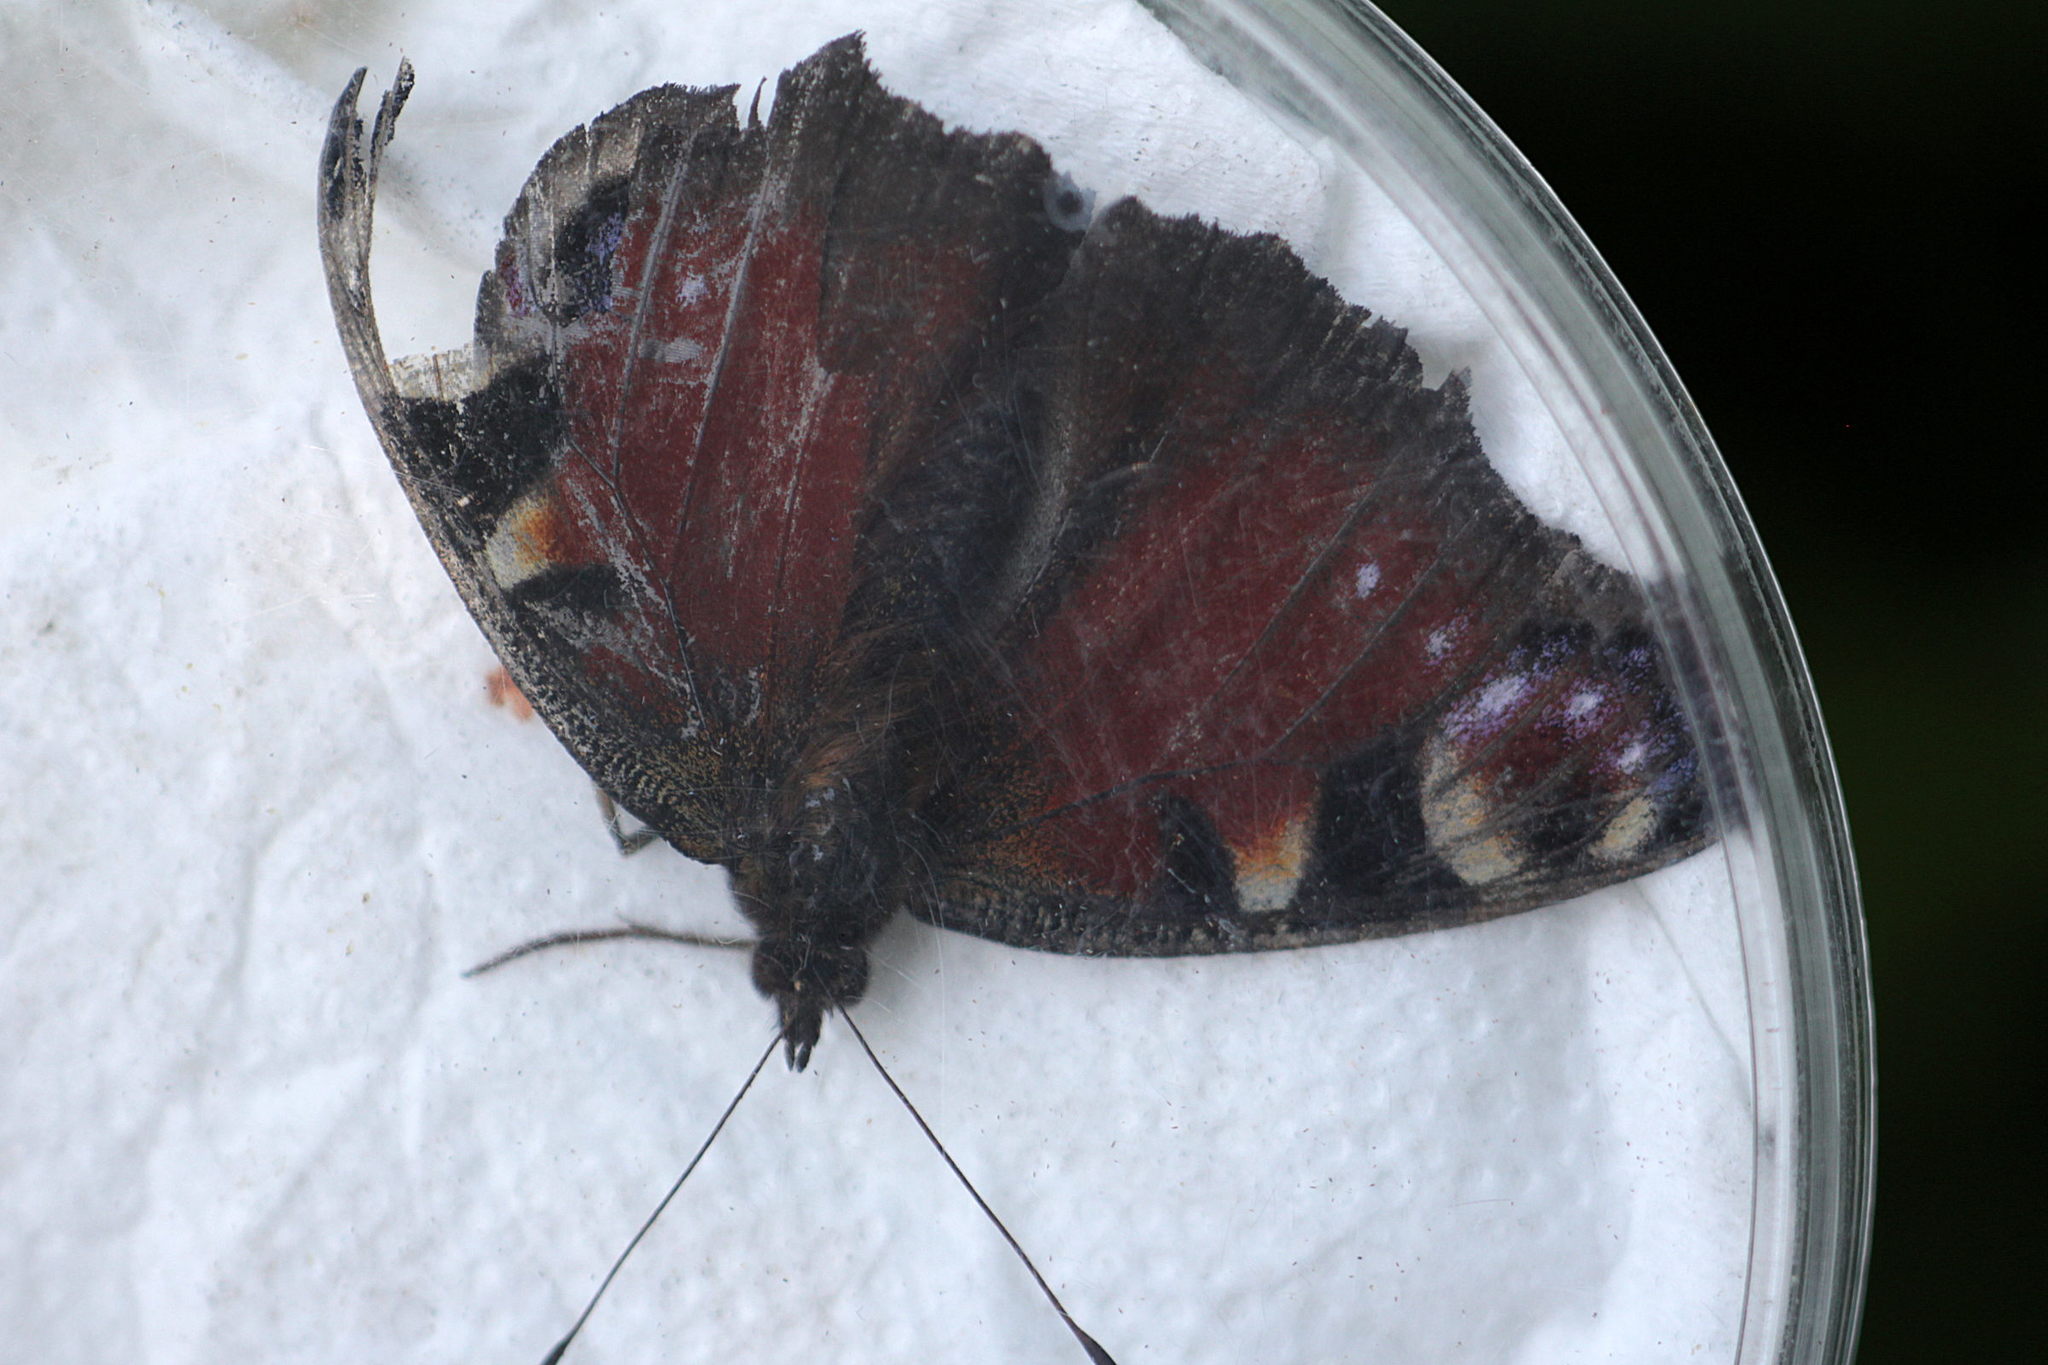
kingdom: Animalia
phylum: Arthropoda
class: Insecta
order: Lepidoptera
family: Nymphalidae
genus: Aglais
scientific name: Aglais io
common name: Peacock
